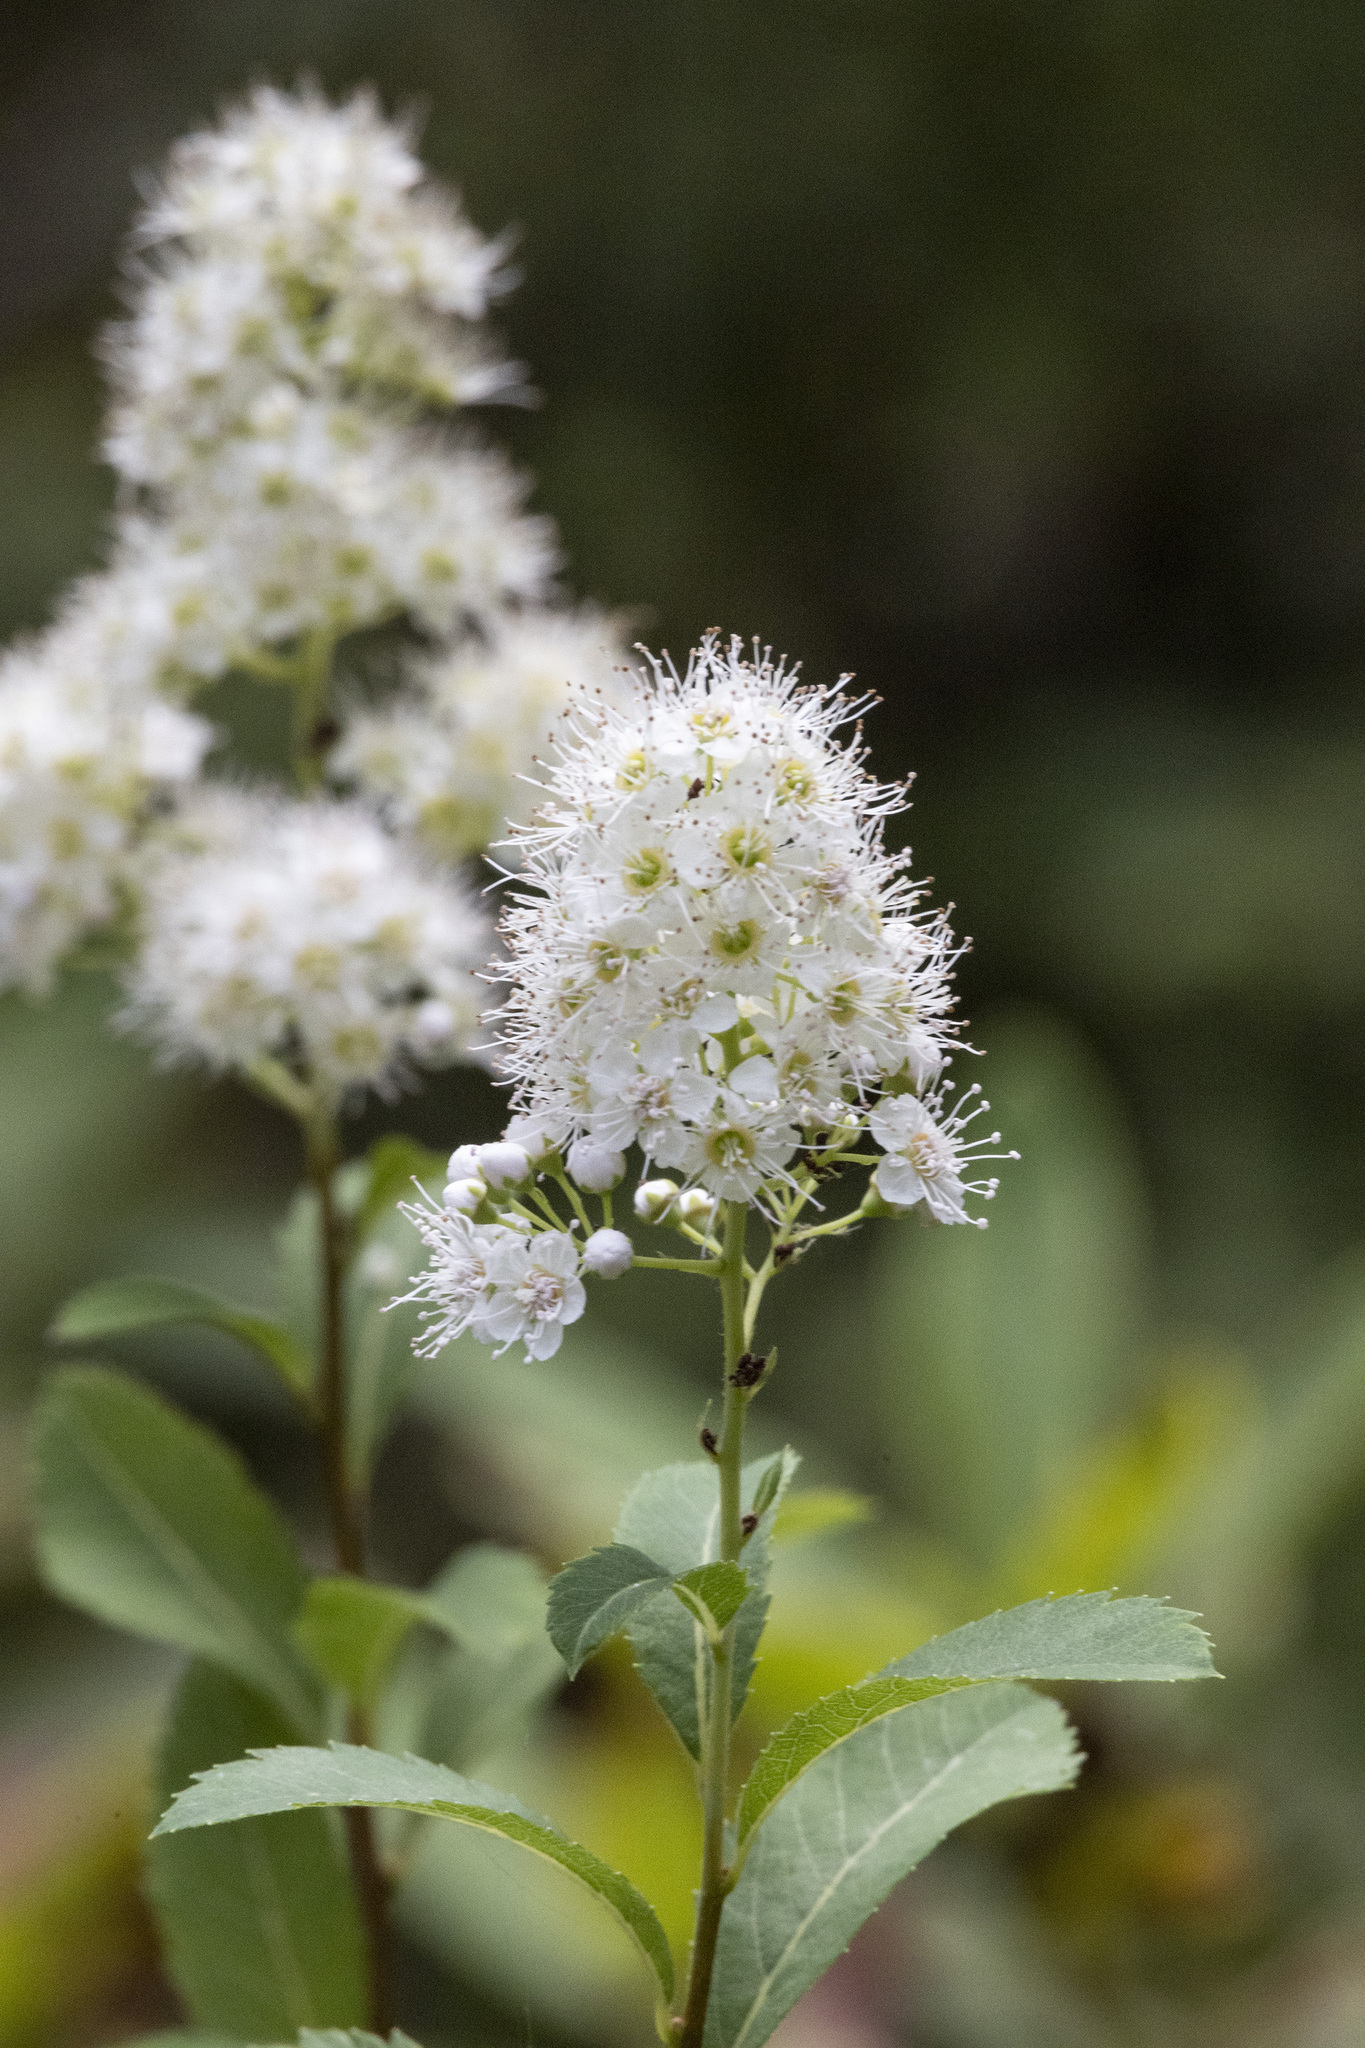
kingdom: Plantae
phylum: Tracheophyta
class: Magnoliopsida
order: Rosales
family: Rosaceae
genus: Spiraea
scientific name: Spiraea alba
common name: Pale bridewort
